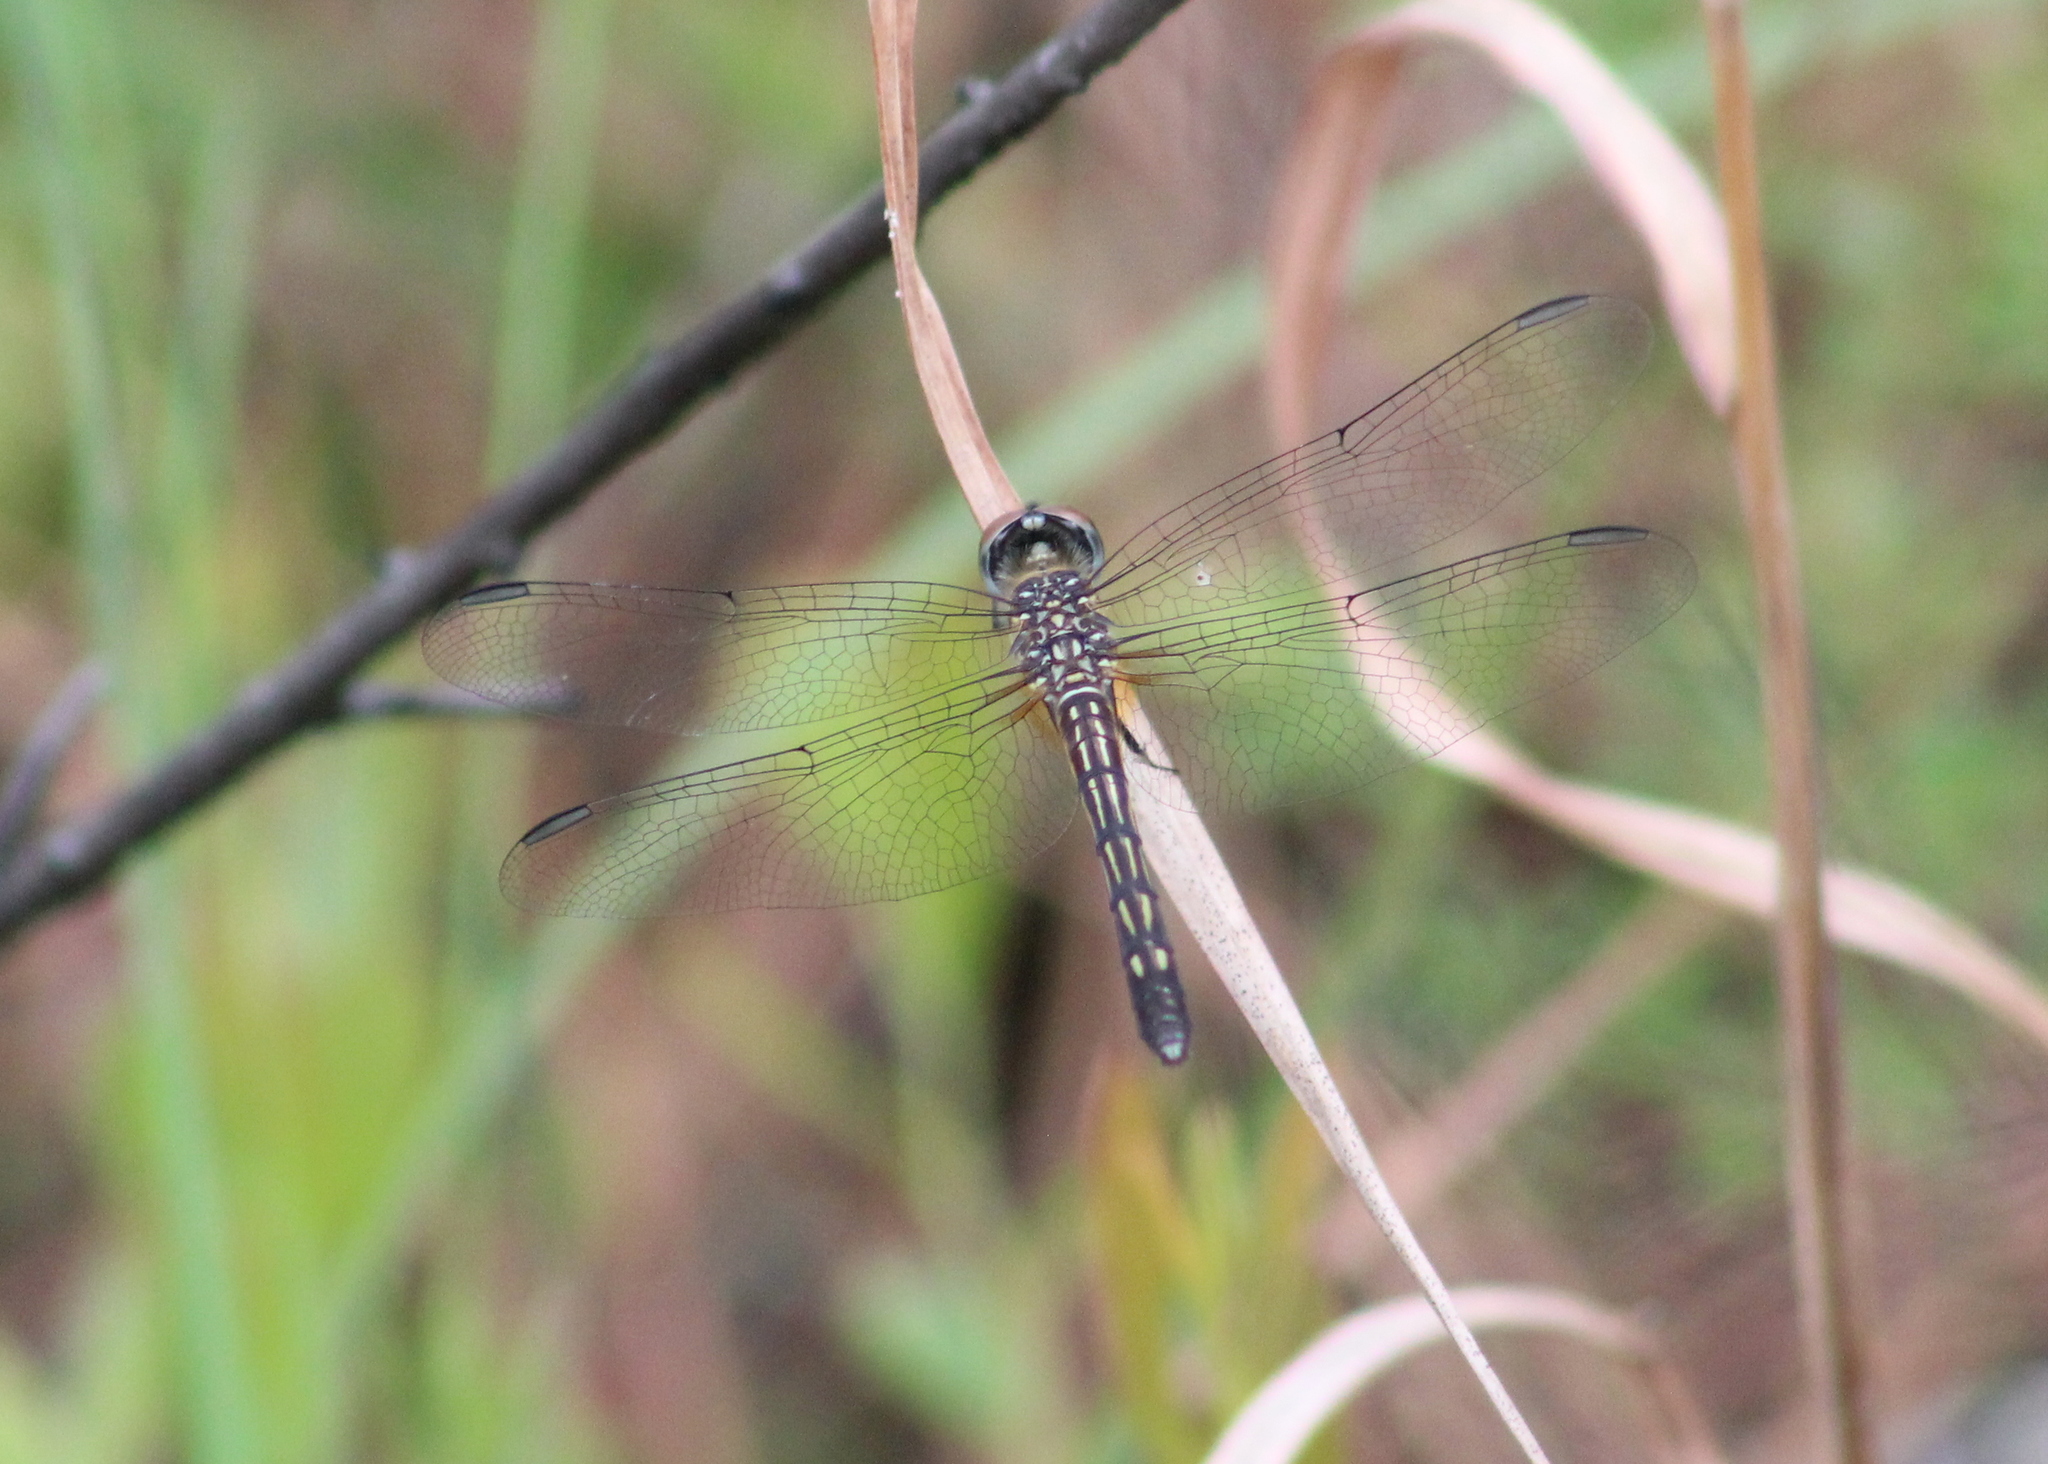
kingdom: Animalia
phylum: Arthropoda
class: Insecta
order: Odonata
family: Libellulidae
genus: Pachydiplax
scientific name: Pachydiplax longipennis
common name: Blue dasher
